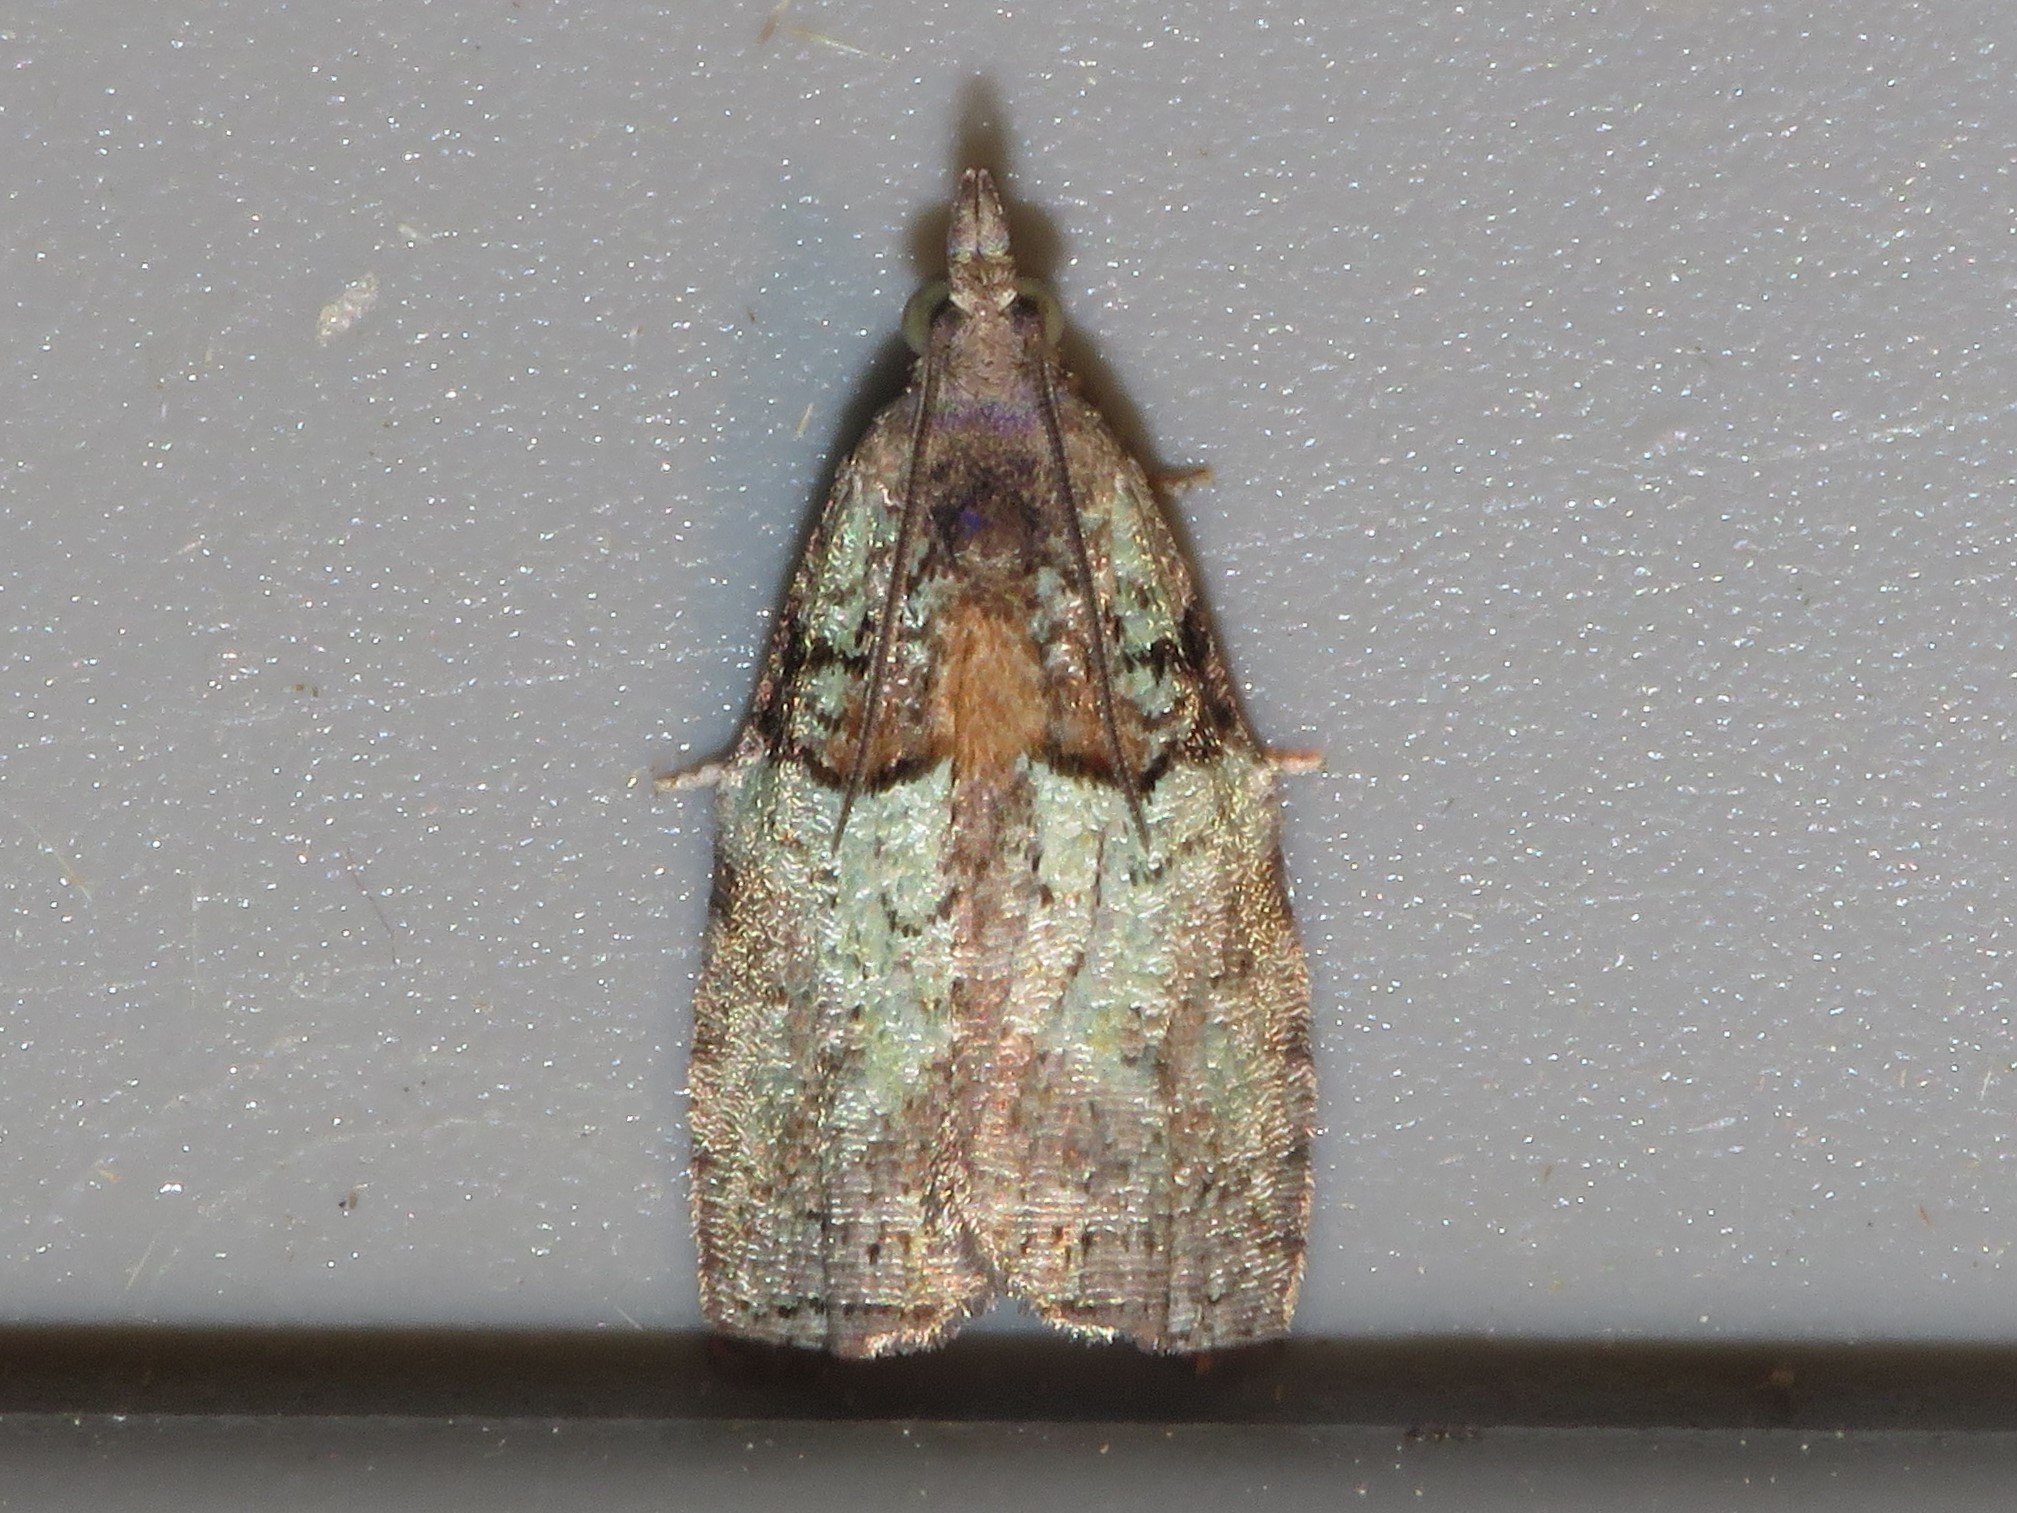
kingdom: Animalia
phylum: Arthropoda
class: Insecta
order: Lepidoptera
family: Tortricidae
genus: Epinotia
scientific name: Epinotia medioviridana
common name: Raspberry leaf-roller moth
